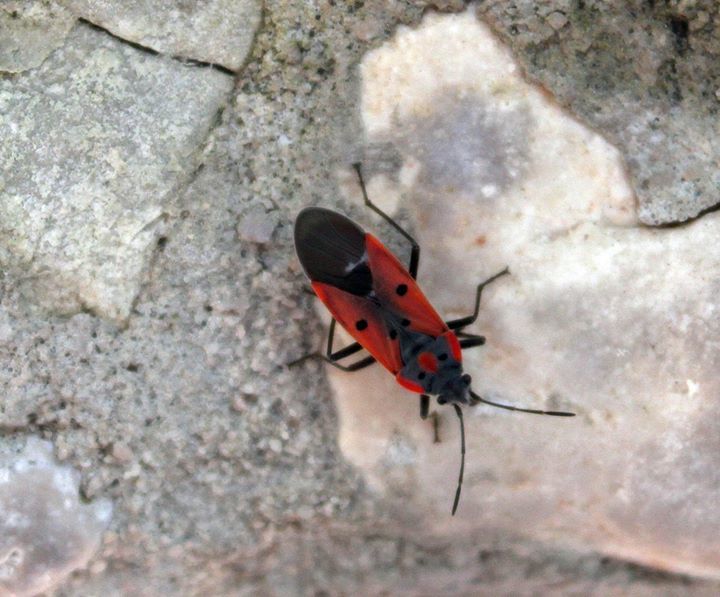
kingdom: Animalia
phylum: Arthropoda
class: Insecta
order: Hemiptera
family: Lygaeidae
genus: Lygaeus
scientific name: Lygaeus creticus
